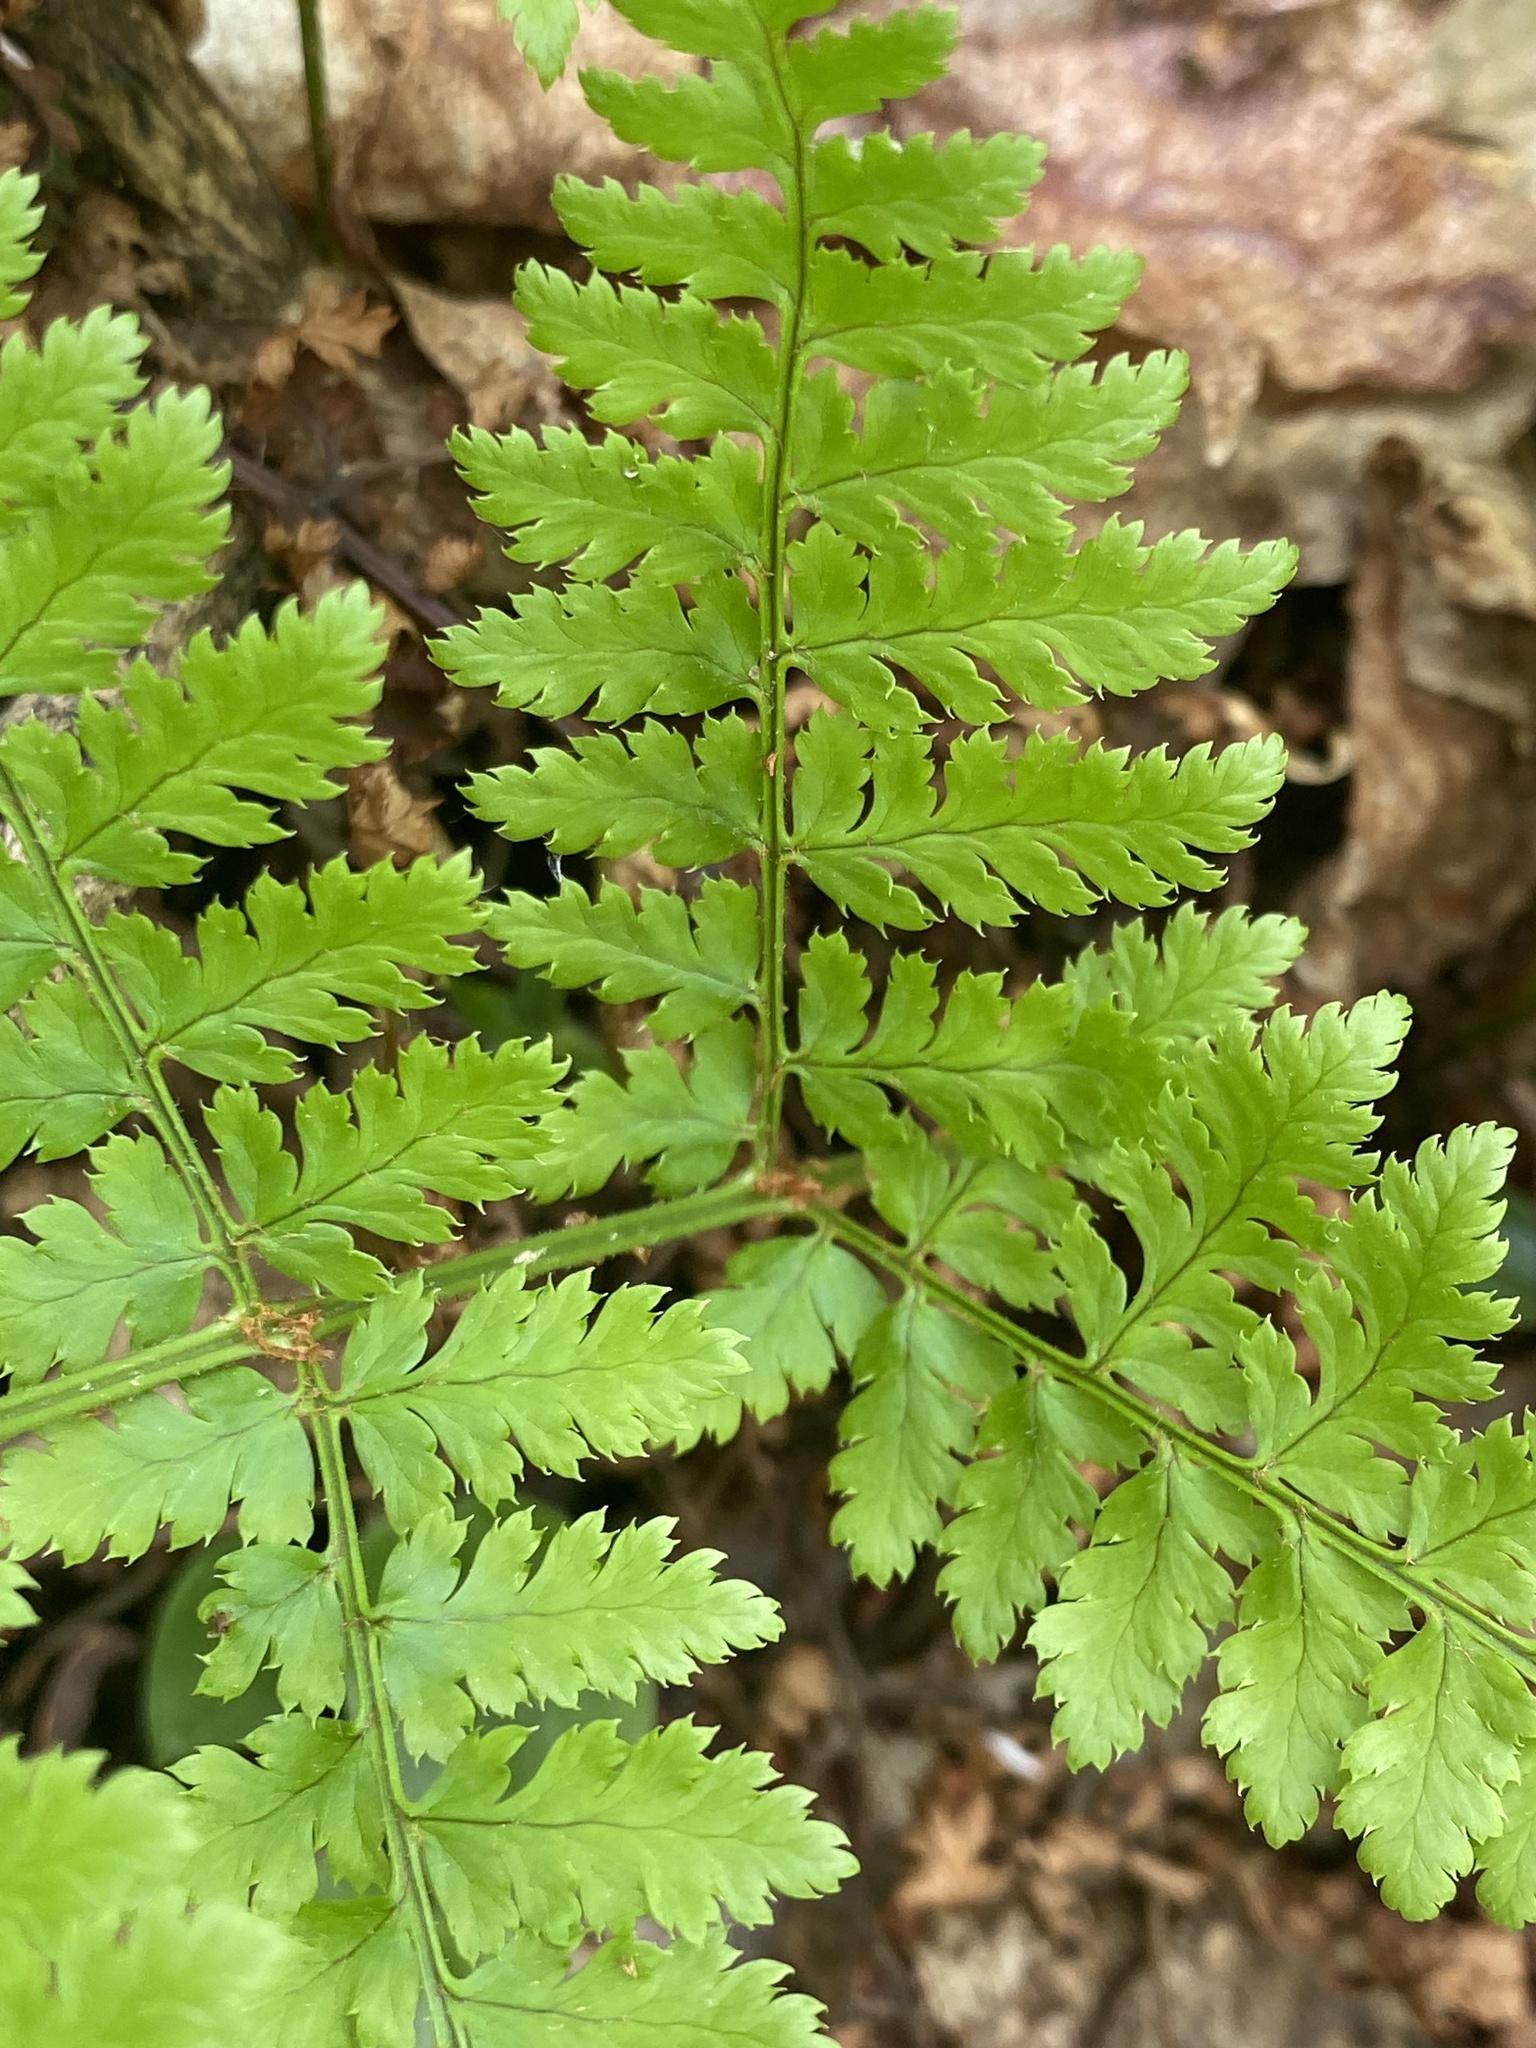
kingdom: Plantae
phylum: Tracheophyta
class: Polypodiopsida
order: Polypodiales
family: Dryopteridaceae
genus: Dryopteris
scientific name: Dryopteris intermedia
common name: Evergreen wood fern
